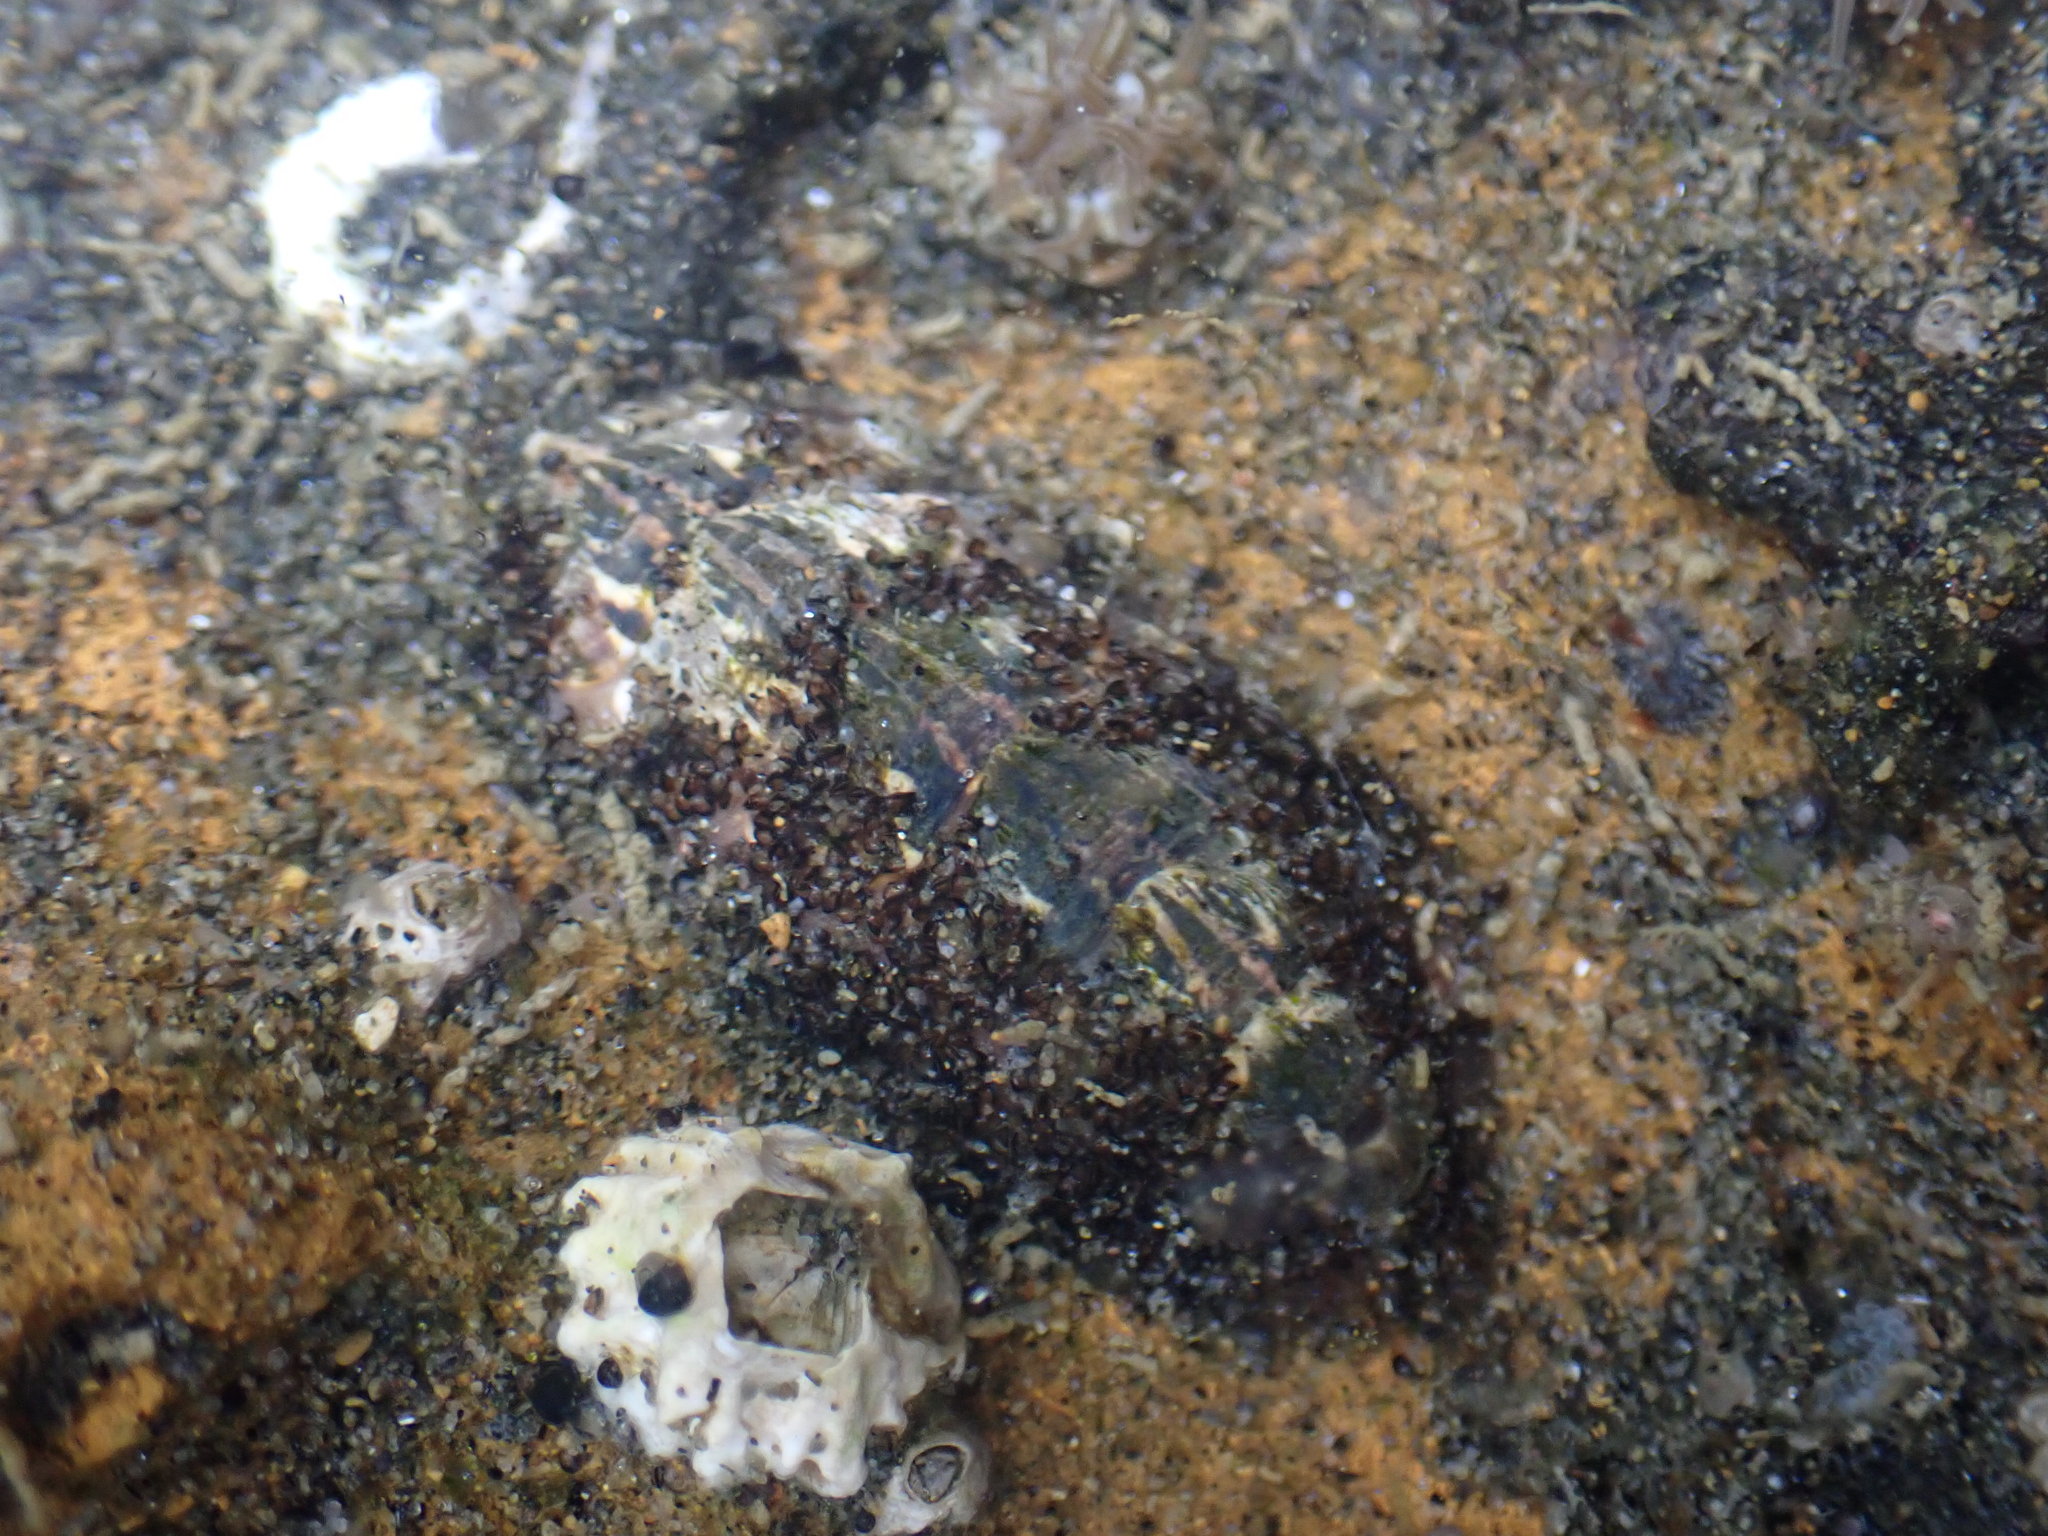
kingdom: Animalia
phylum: Mollusca
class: Polyplacophora
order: Chitonida
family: Mopaliidae
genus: Plaxiphora
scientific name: Plaxiphora caelata
